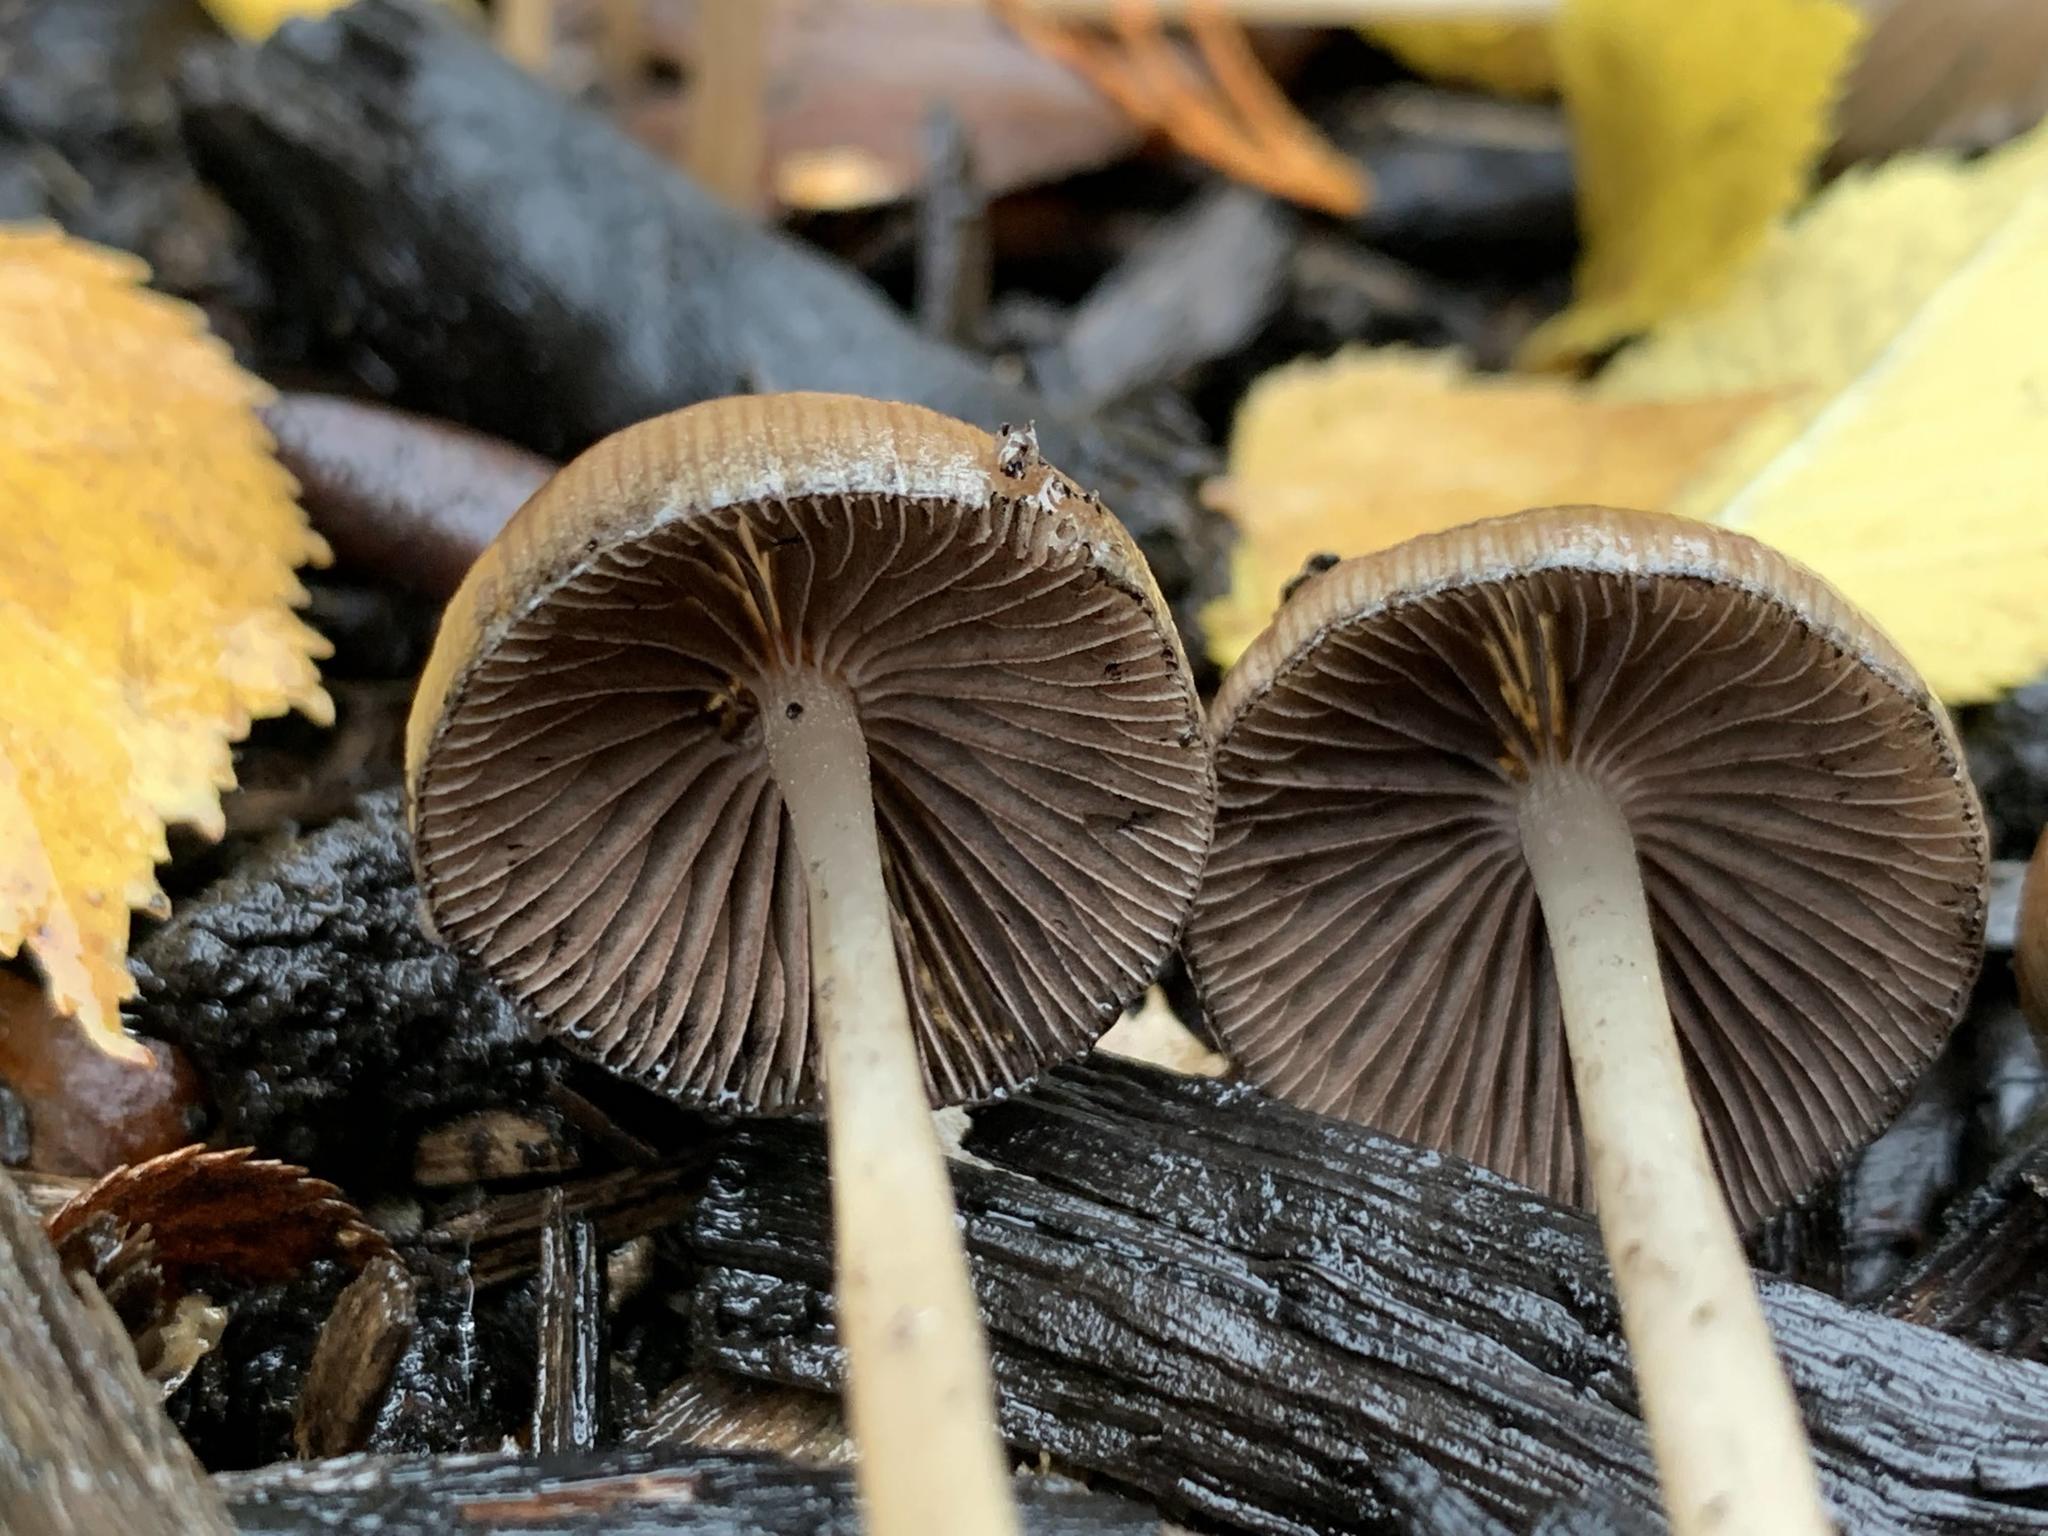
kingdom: Fungi
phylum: Basidiomycota
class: Agaricomycetes
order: Agaricales
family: Psathyrellaceae
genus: Psathyrella
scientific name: Psathyrella corrugis
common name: Red edge brittlestem
